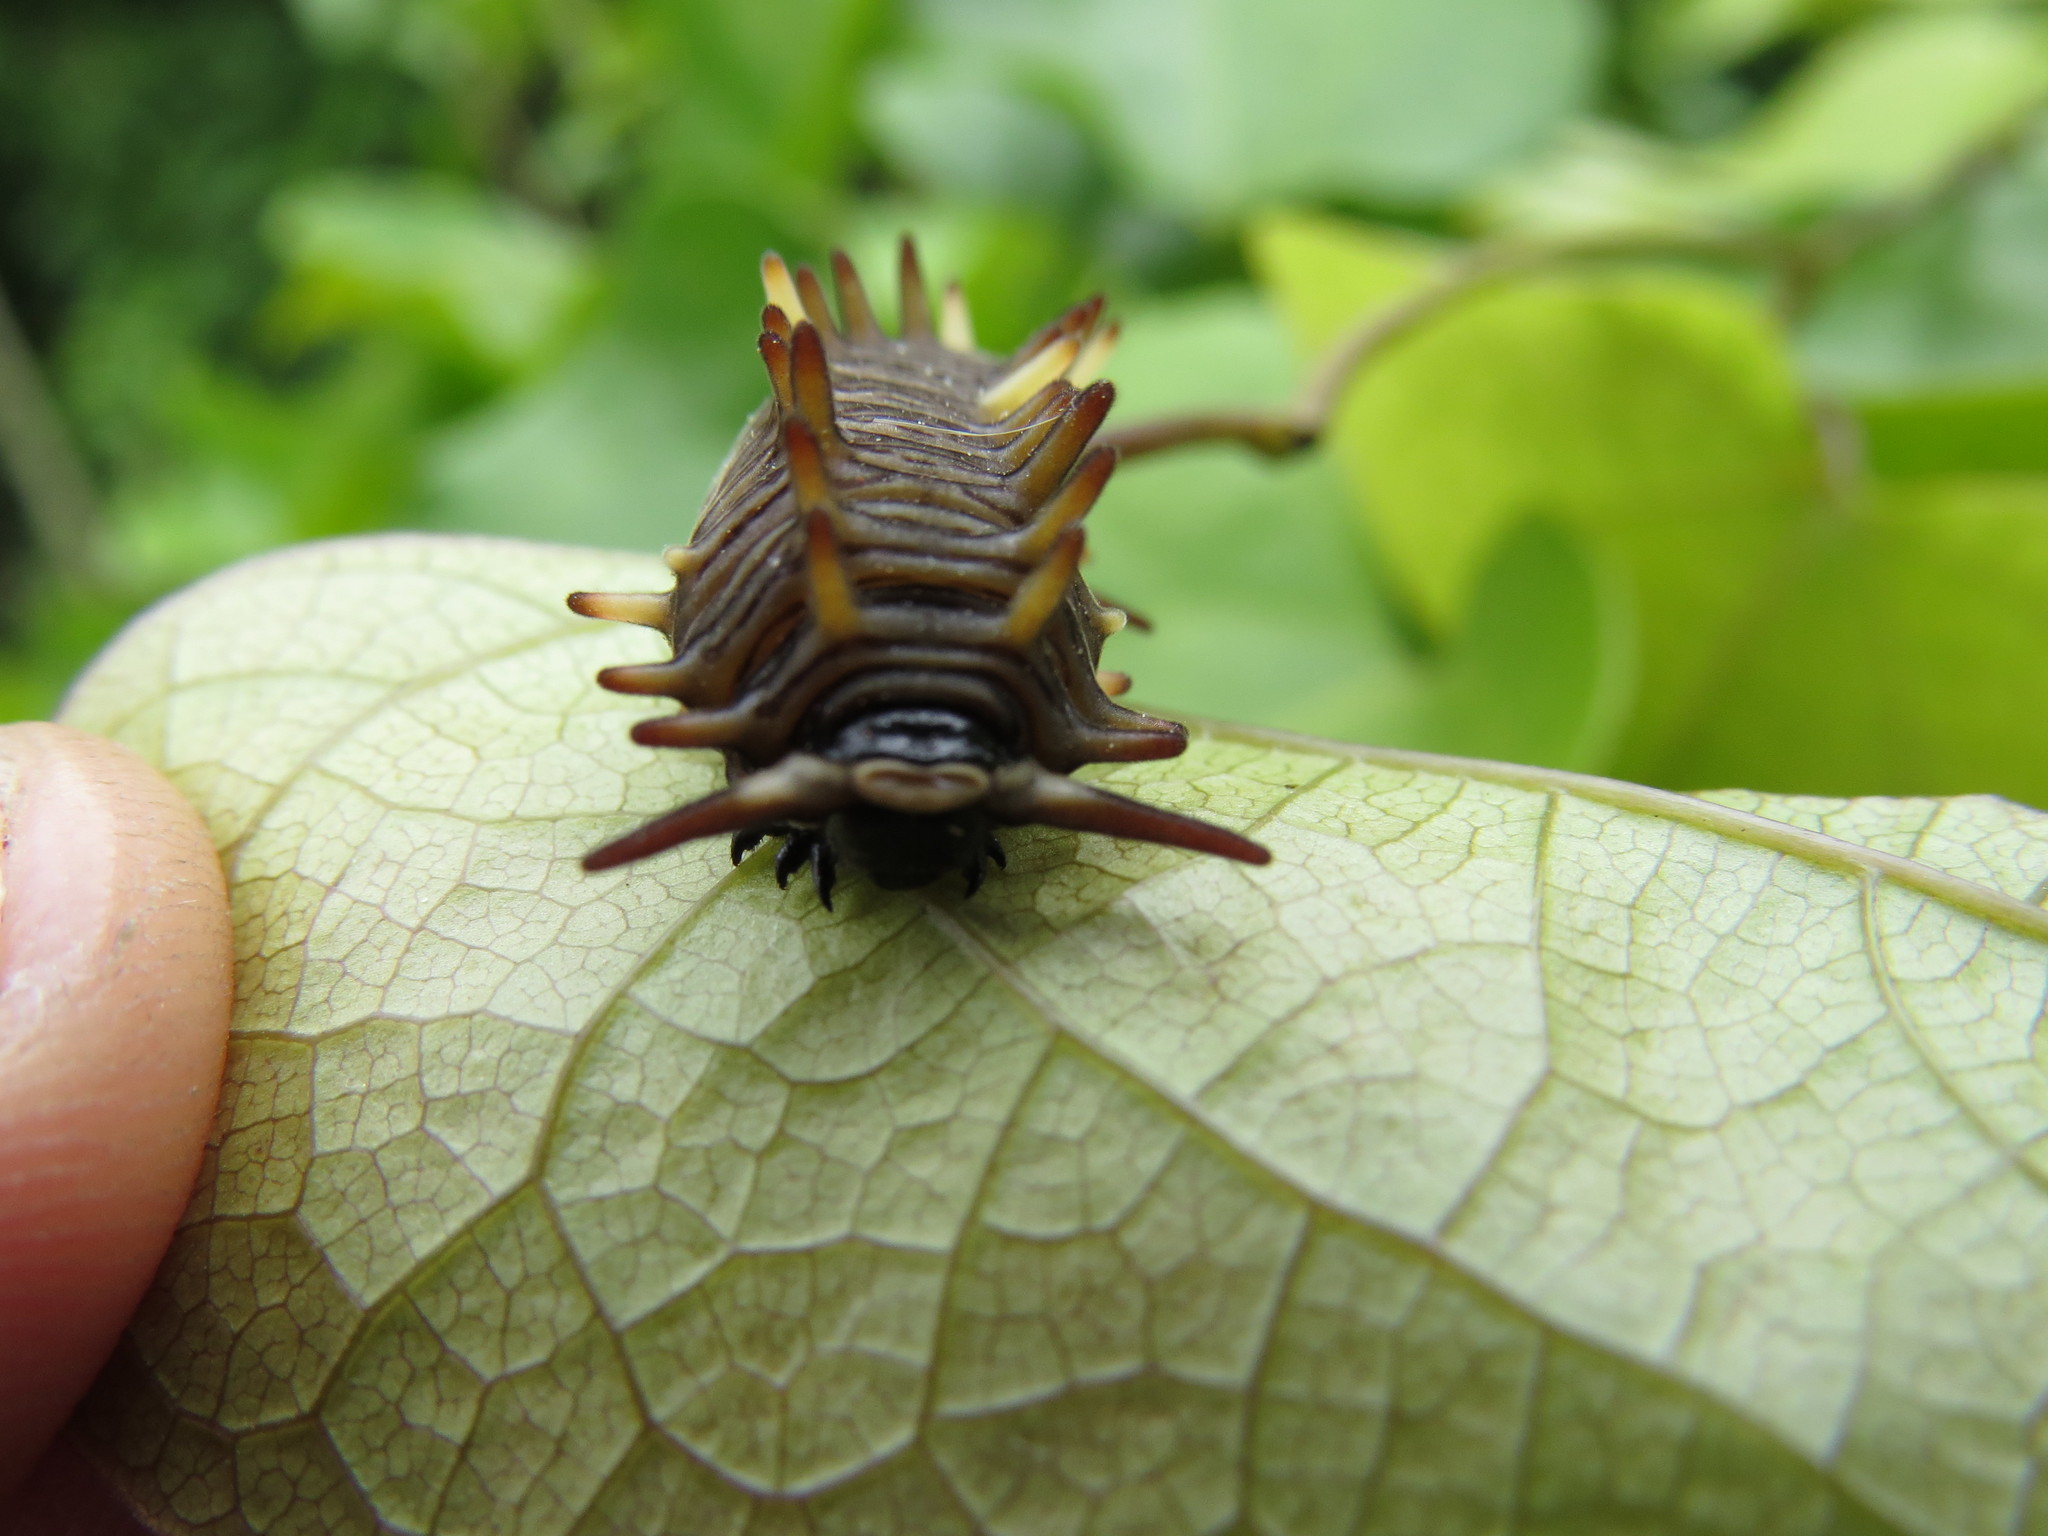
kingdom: Animalia
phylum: Arthropoda
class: Insecta
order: Lepidoptera
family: Papilionidae
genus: Battus
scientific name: Battus polydamas
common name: Polydamas swallowtail
